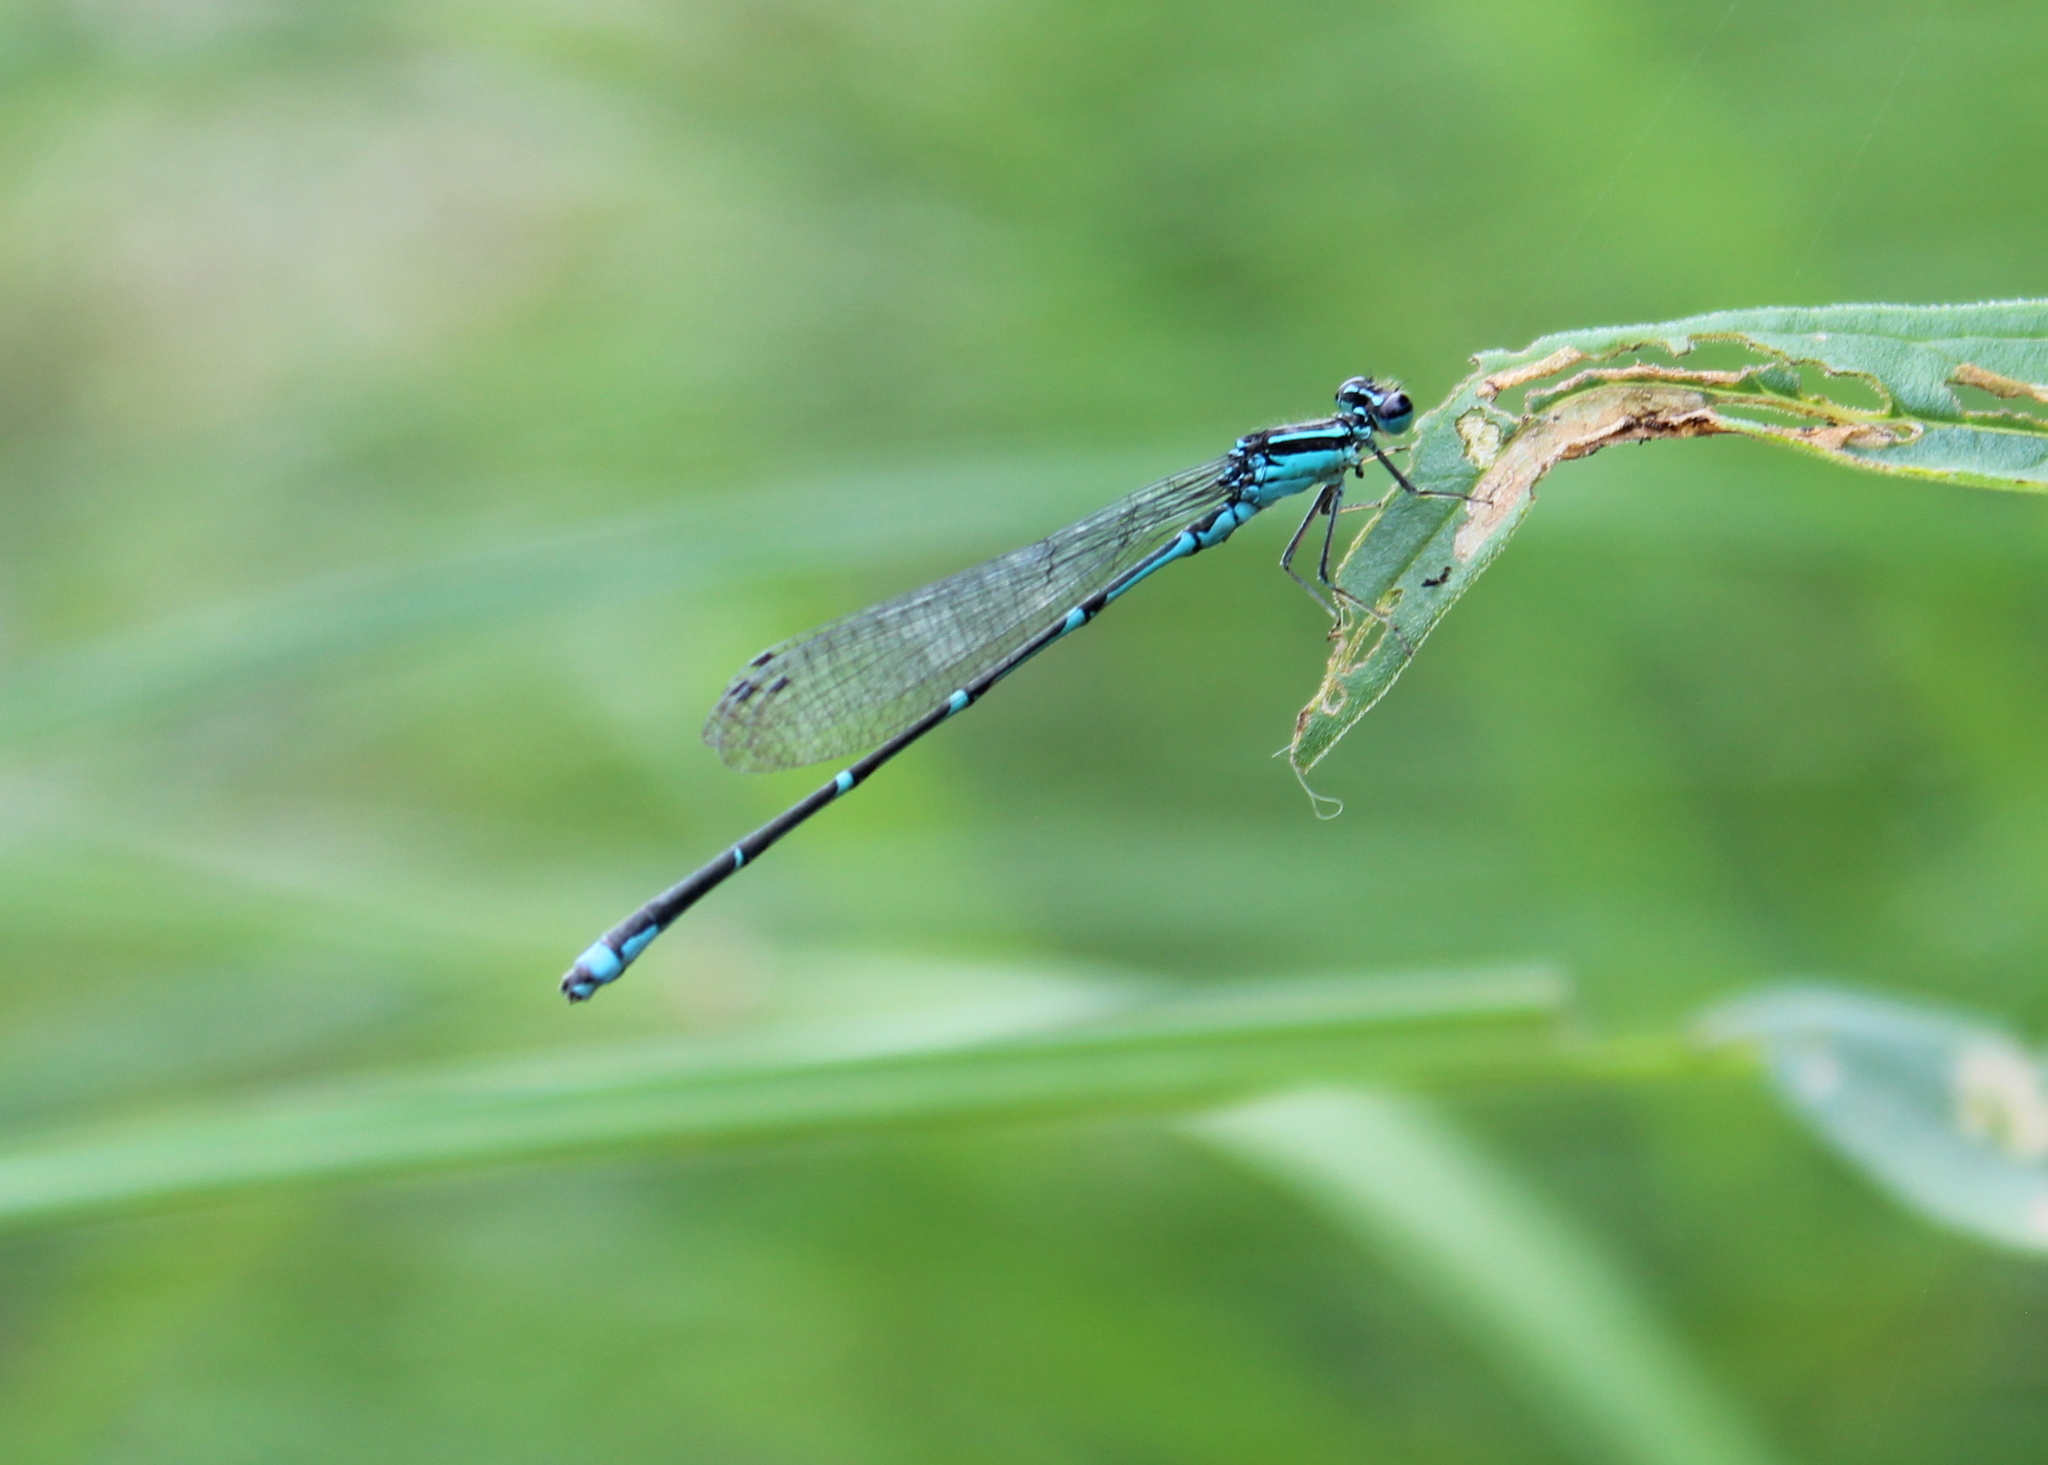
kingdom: Animalia
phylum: Arthropoda
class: Insecta
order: Odonata
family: Coenagrionidae
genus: Enallagma
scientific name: Enallagma exsulans
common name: Stream bluet
